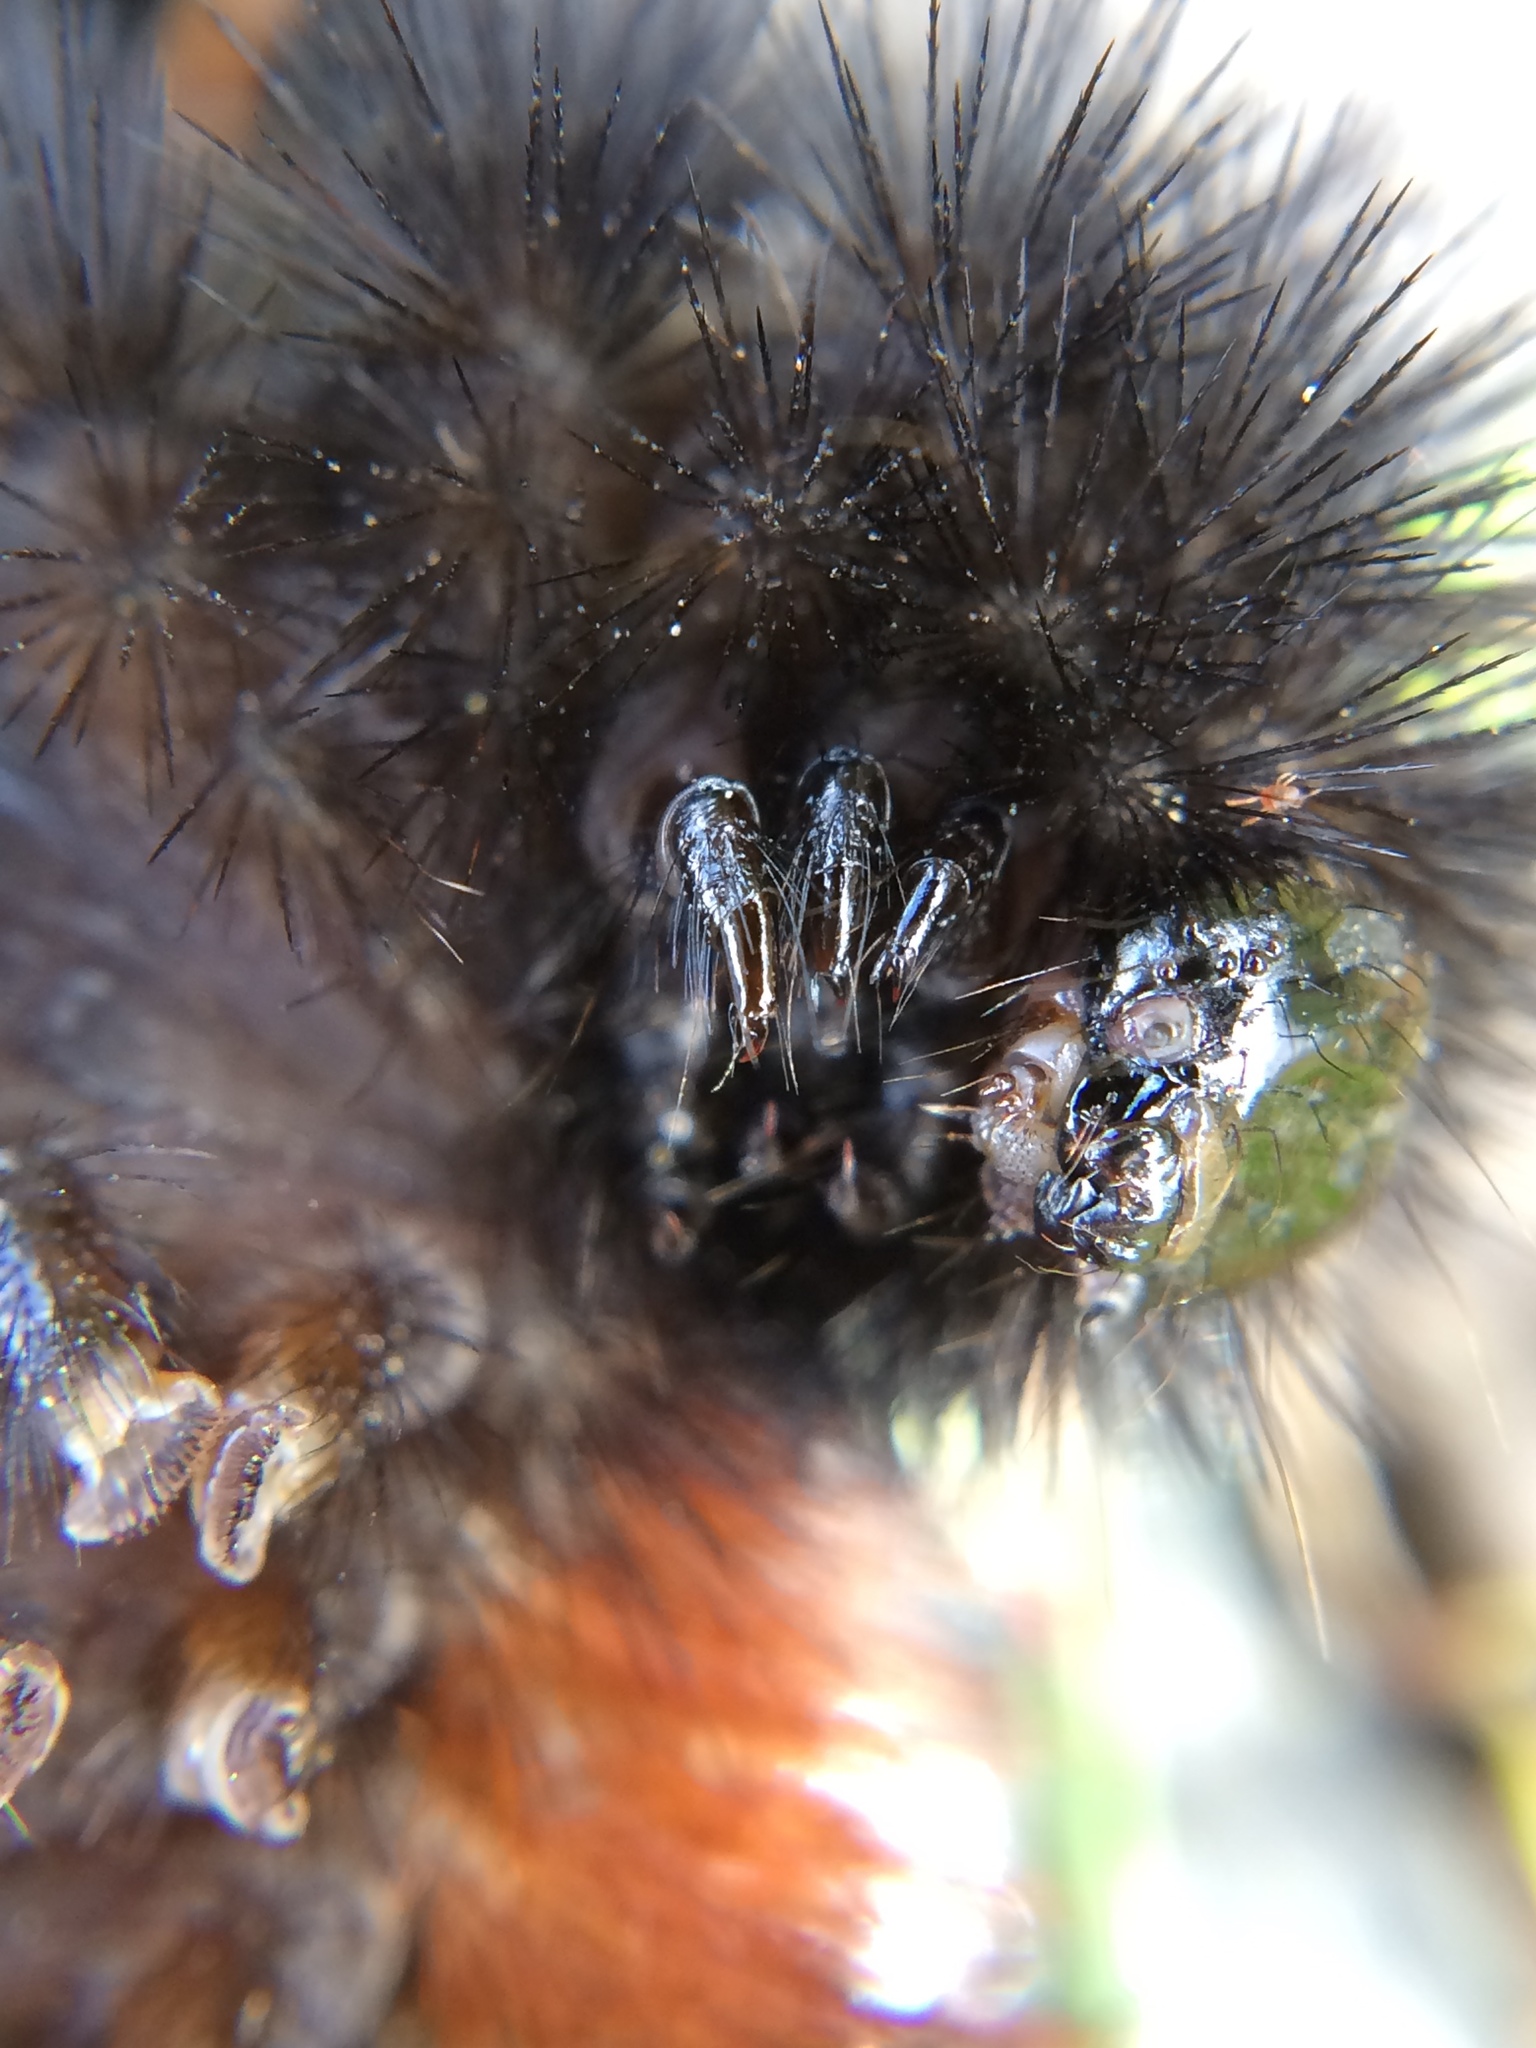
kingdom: Animalia
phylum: Arthropoda
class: Insecta
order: Lepidoptera
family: Erebidae
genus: Pyrrharctia
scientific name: Pyrrharctia isabella
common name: Isabella tiger moth
